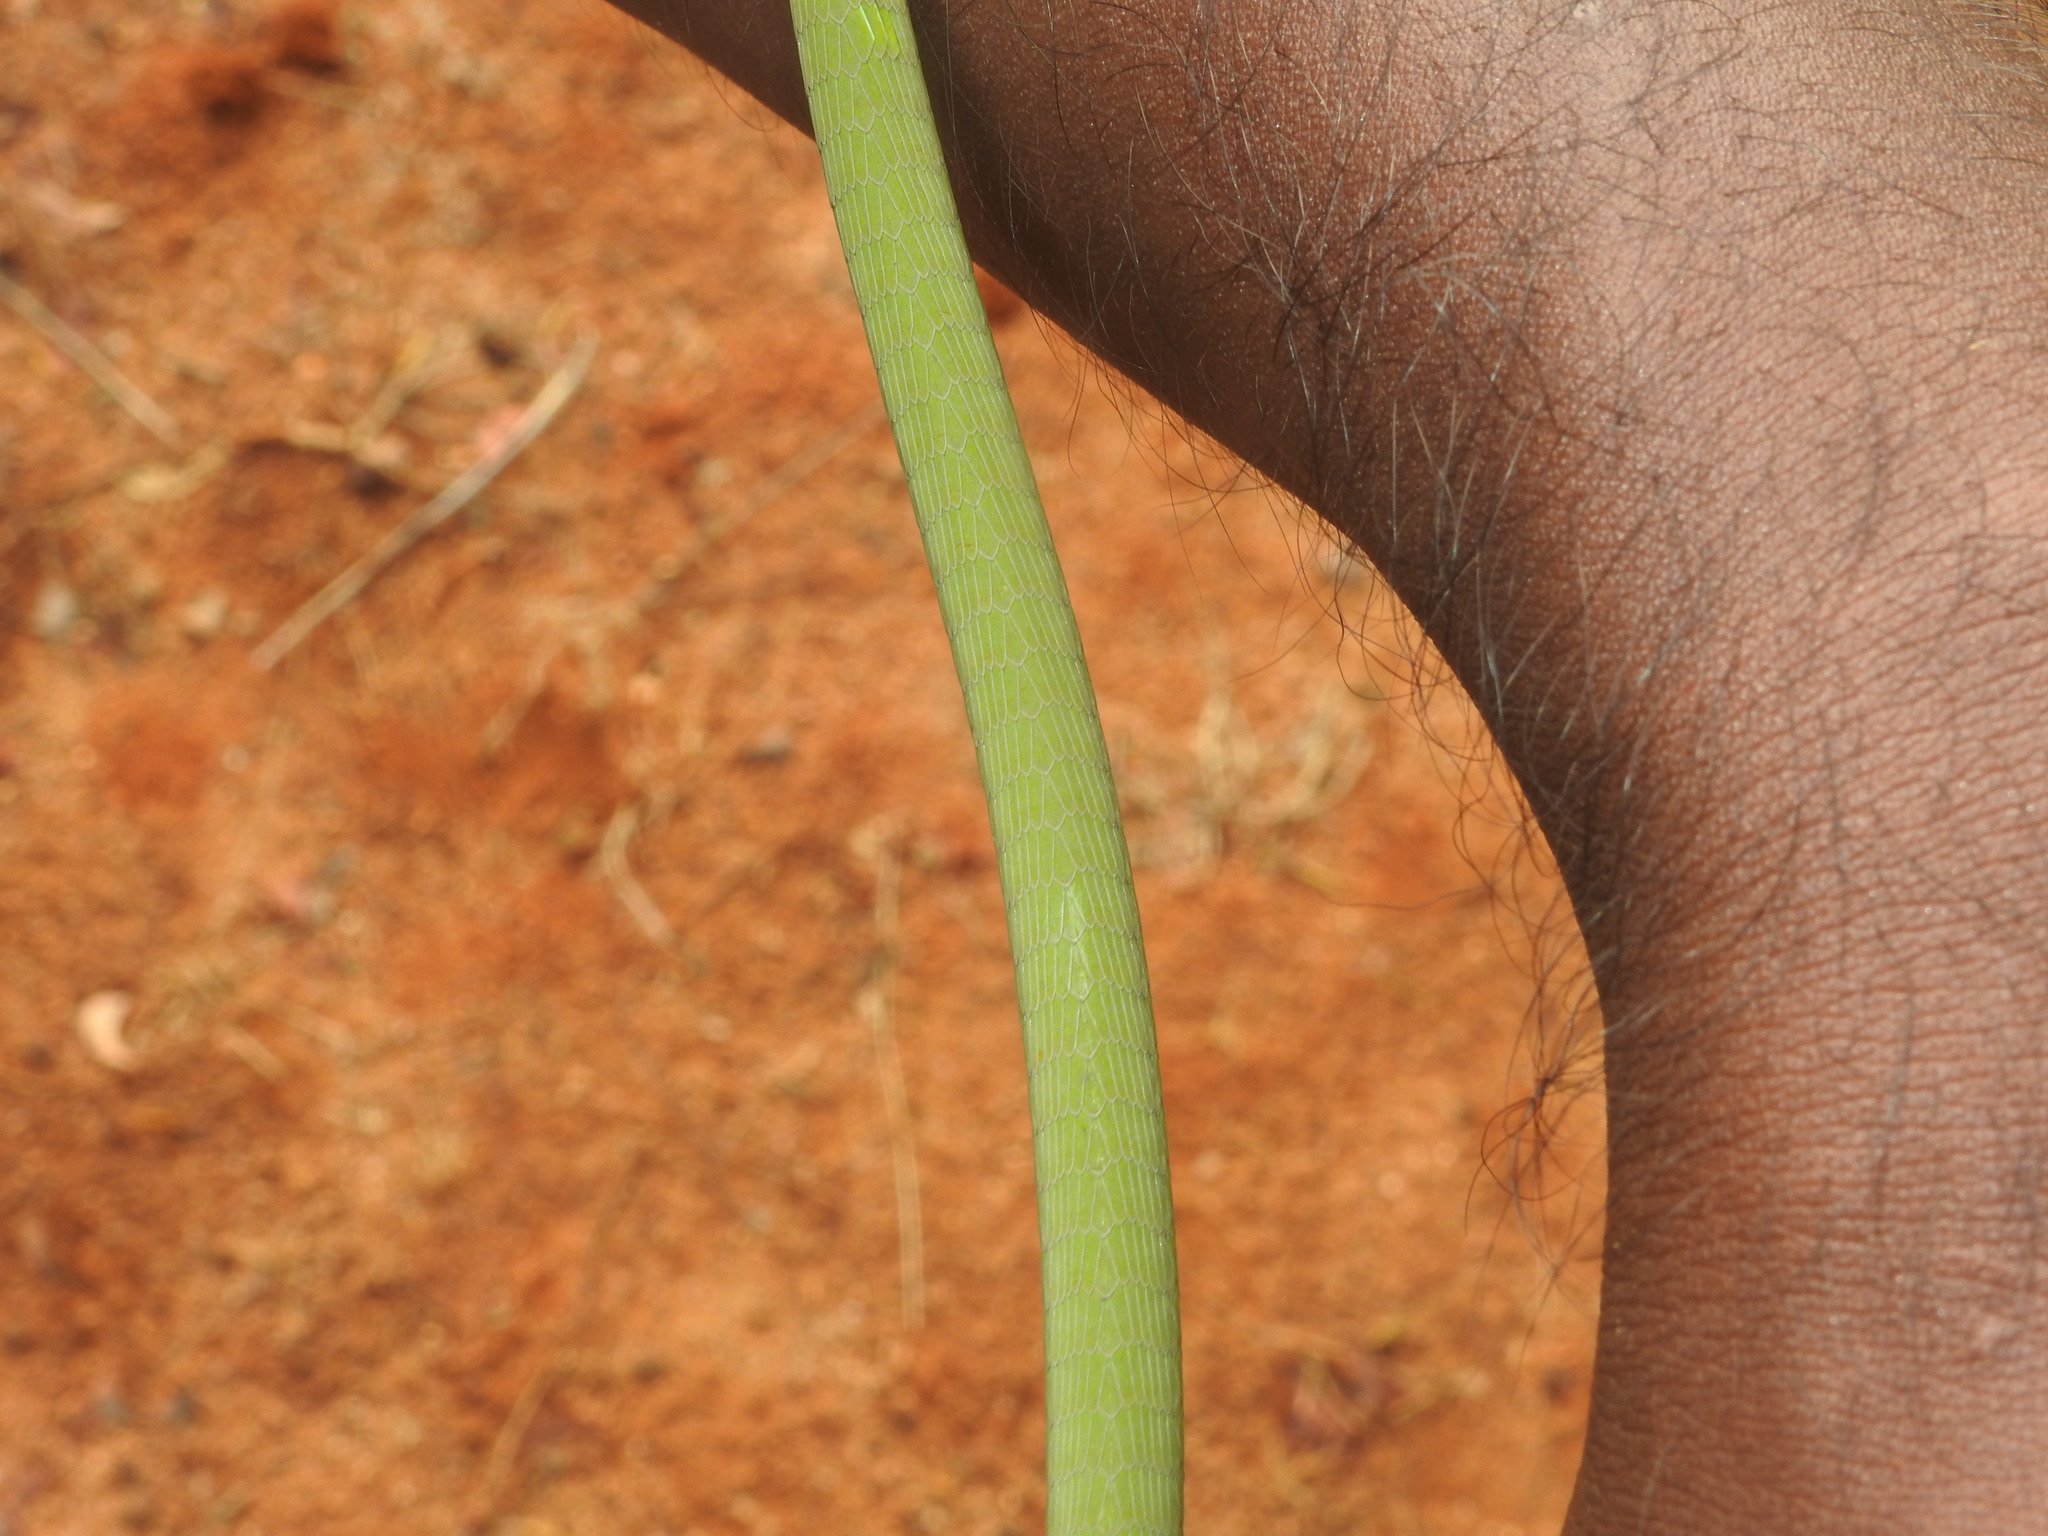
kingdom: Animalia
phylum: Chordata
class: Squamata
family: Colubridae
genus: Ahaetulla
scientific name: Ahaetulla oxyrhyncha
